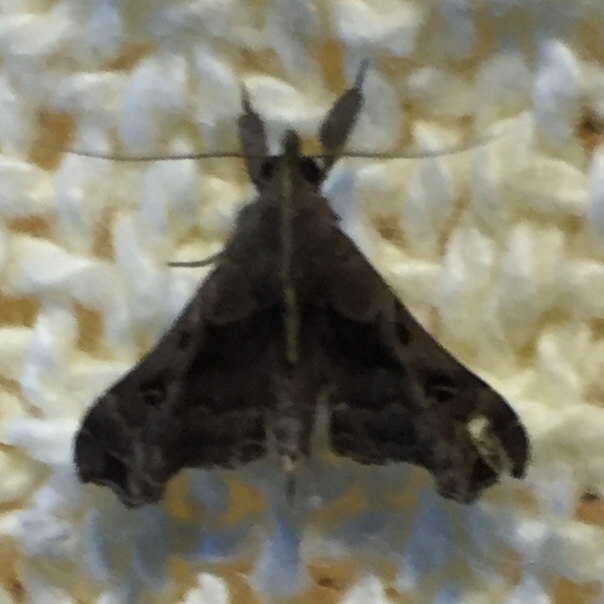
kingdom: Animalia
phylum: Arthropoda
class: Insecta
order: Lepidoptera
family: Erebidae
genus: Palthis
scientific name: Palthis asopialis
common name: Faint-spotted palthis moth
